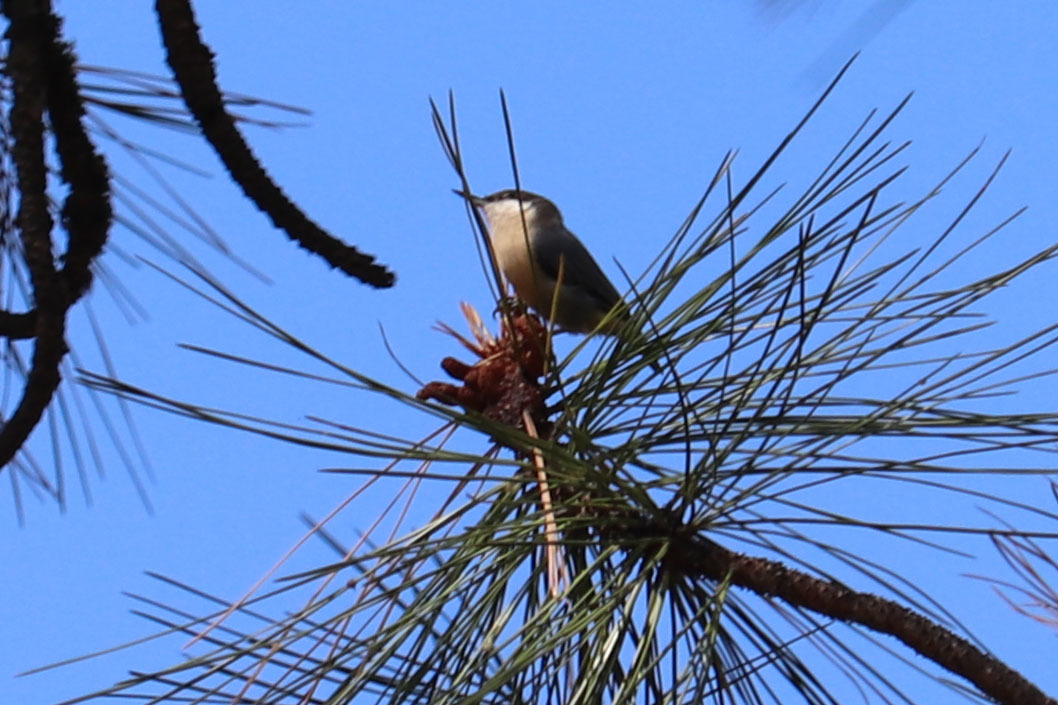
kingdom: Animalia
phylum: Chordata
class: Aves
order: Passeriformes
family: Sittidae
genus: Sitta
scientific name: Sitta pygmaea
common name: Pygmy nuthatch
